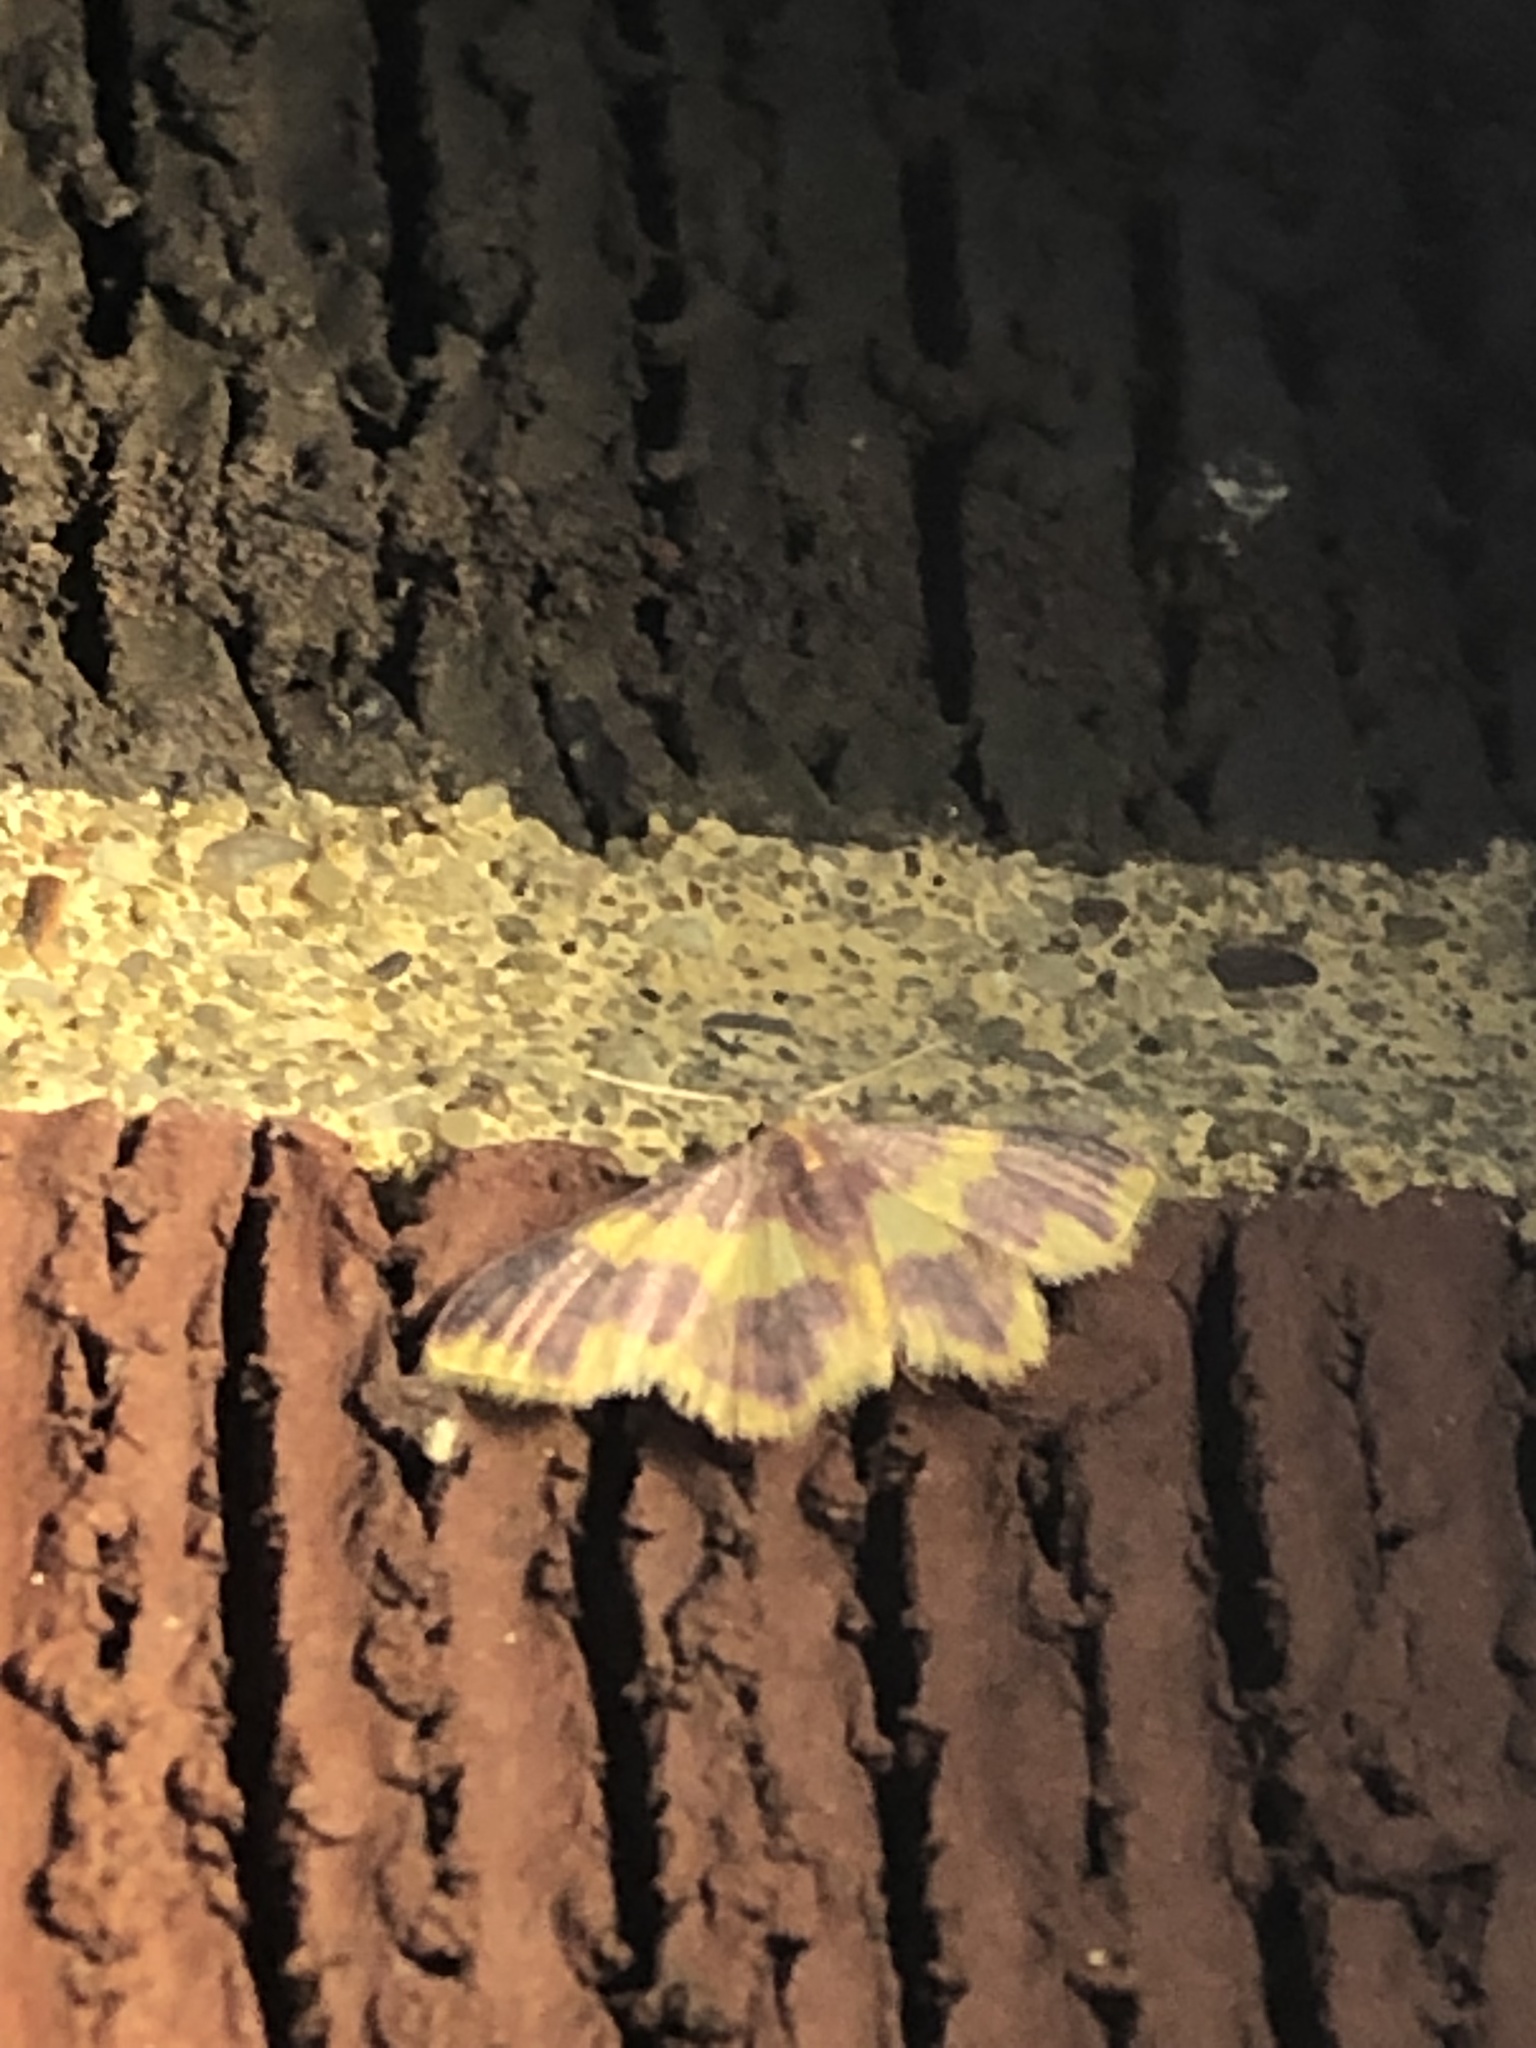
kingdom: Animalia
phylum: Arthropoda
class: Insecta
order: Lepidoptera
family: Geometridae
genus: Lophosis
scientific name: Lophosis labeculata
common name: Stained lophosis moth
